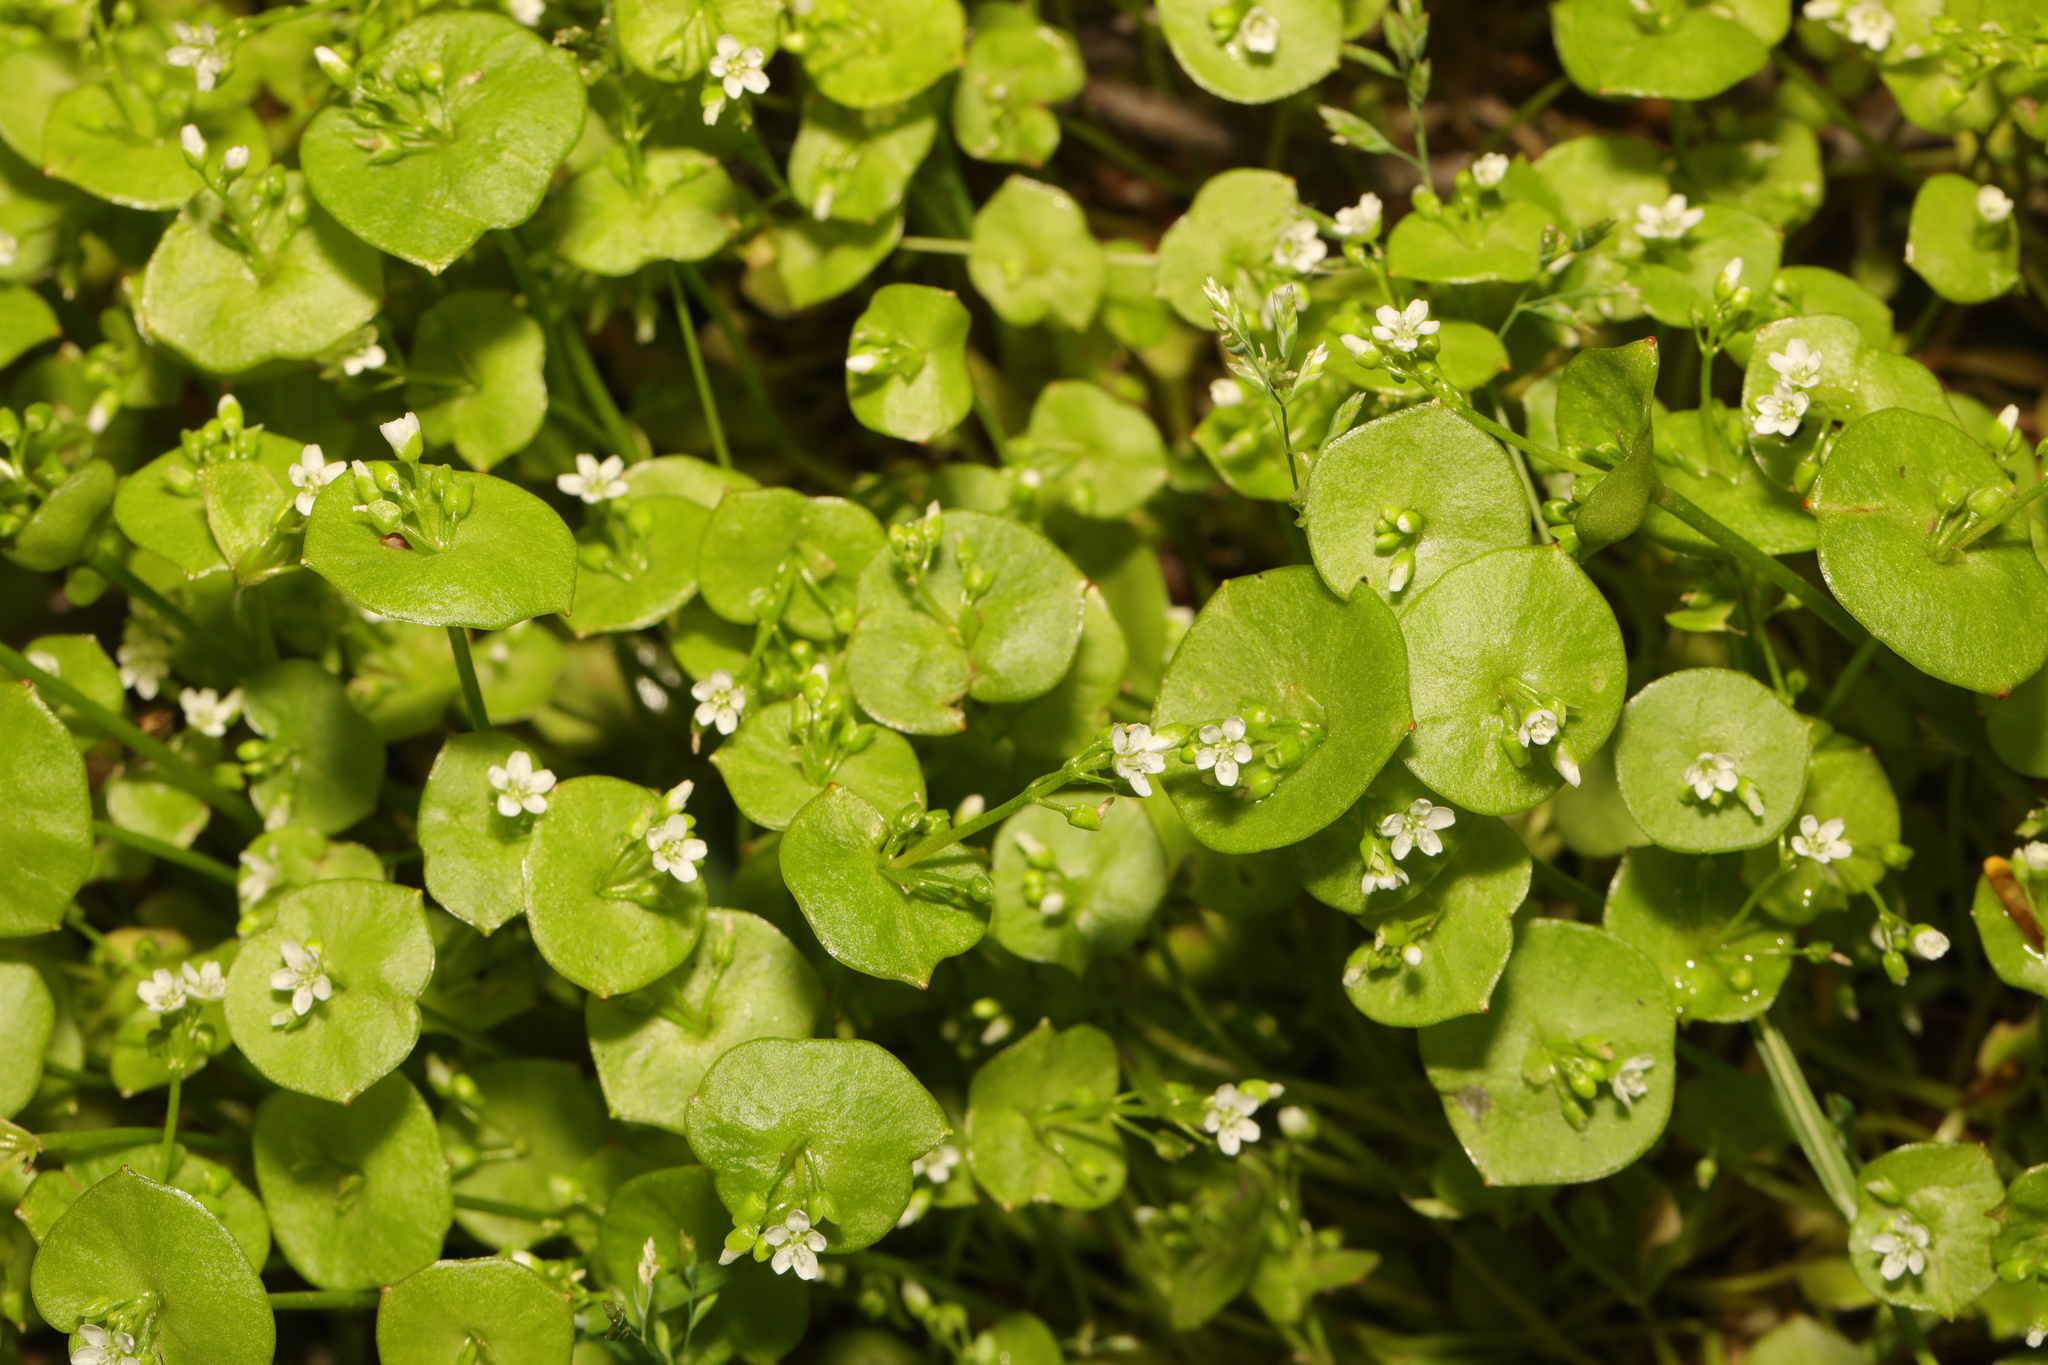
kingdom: Plantae
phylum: Tracheophyta
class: Magnoliopsida
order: Caryophyllales
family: Montiaceae
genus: Claytonia
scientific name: Claytonia perfoliata
